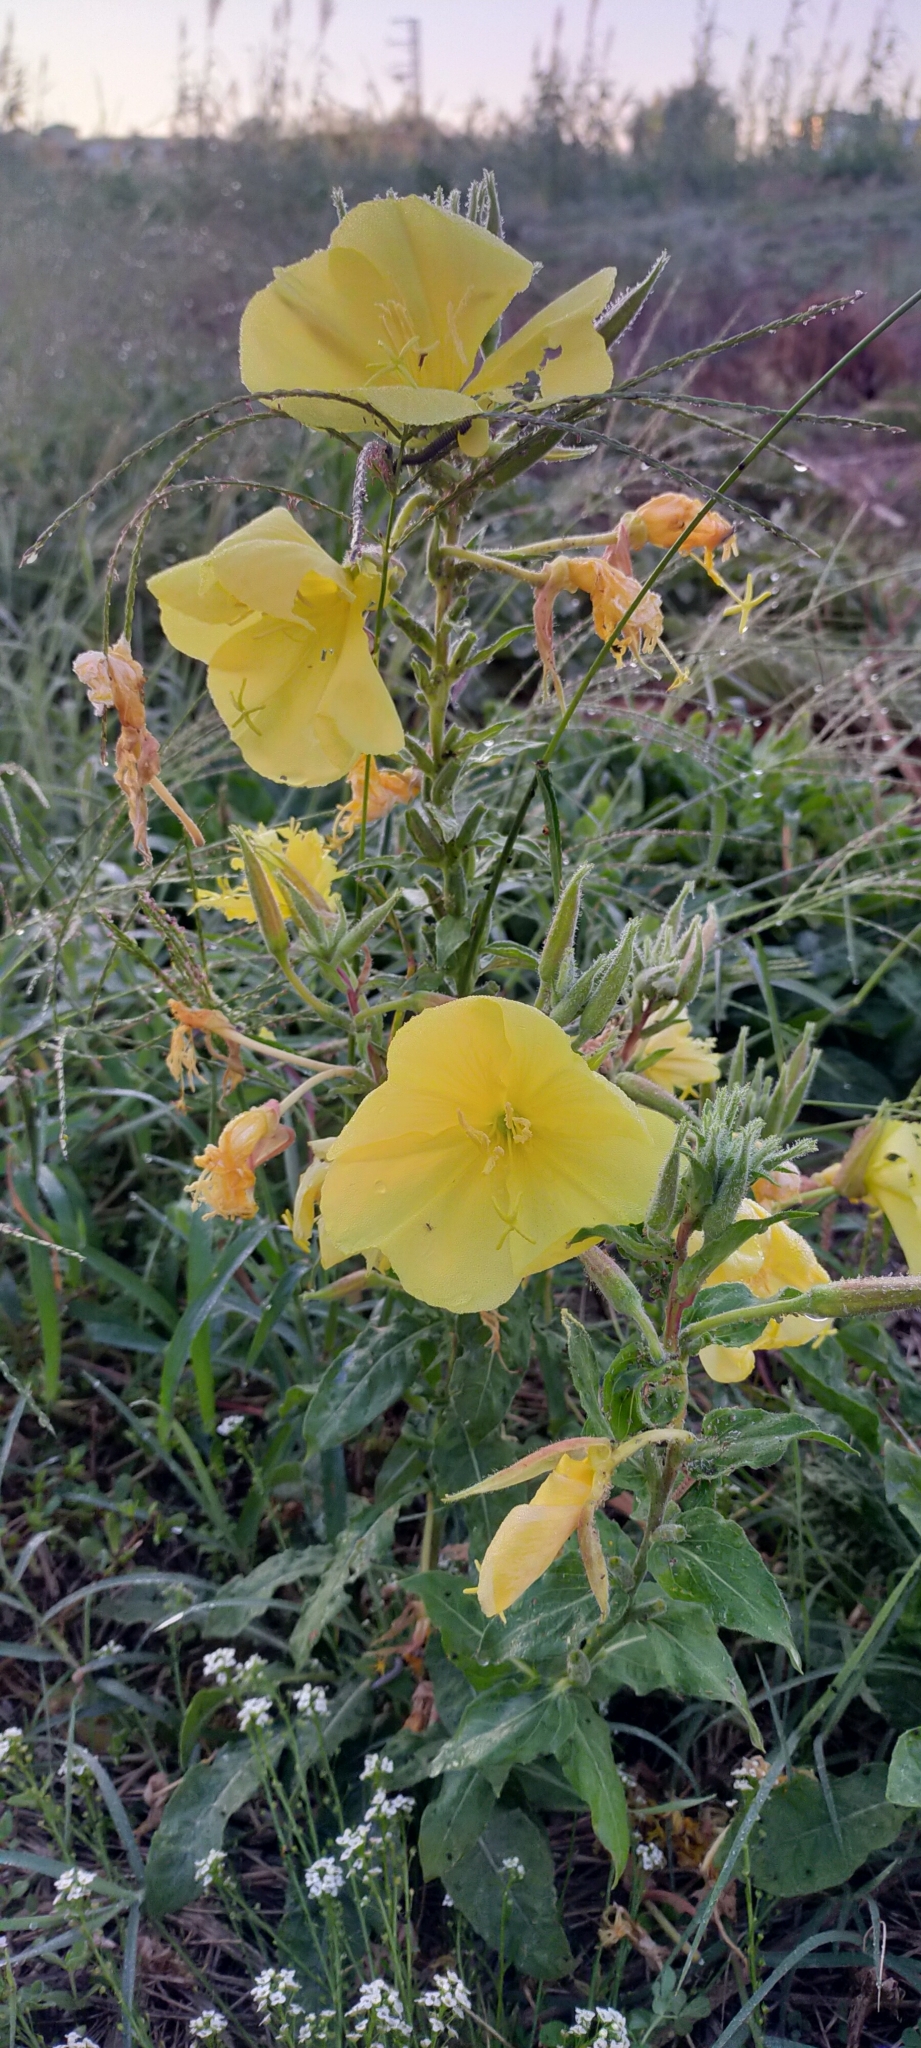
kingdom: Plantae
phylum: Tracheophyta
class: Magnoliopsida
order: Myrtales
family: Onagraceae
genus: Oenothera
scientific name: Oenothera glazioviana
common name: Large-flowered evening-primrose
